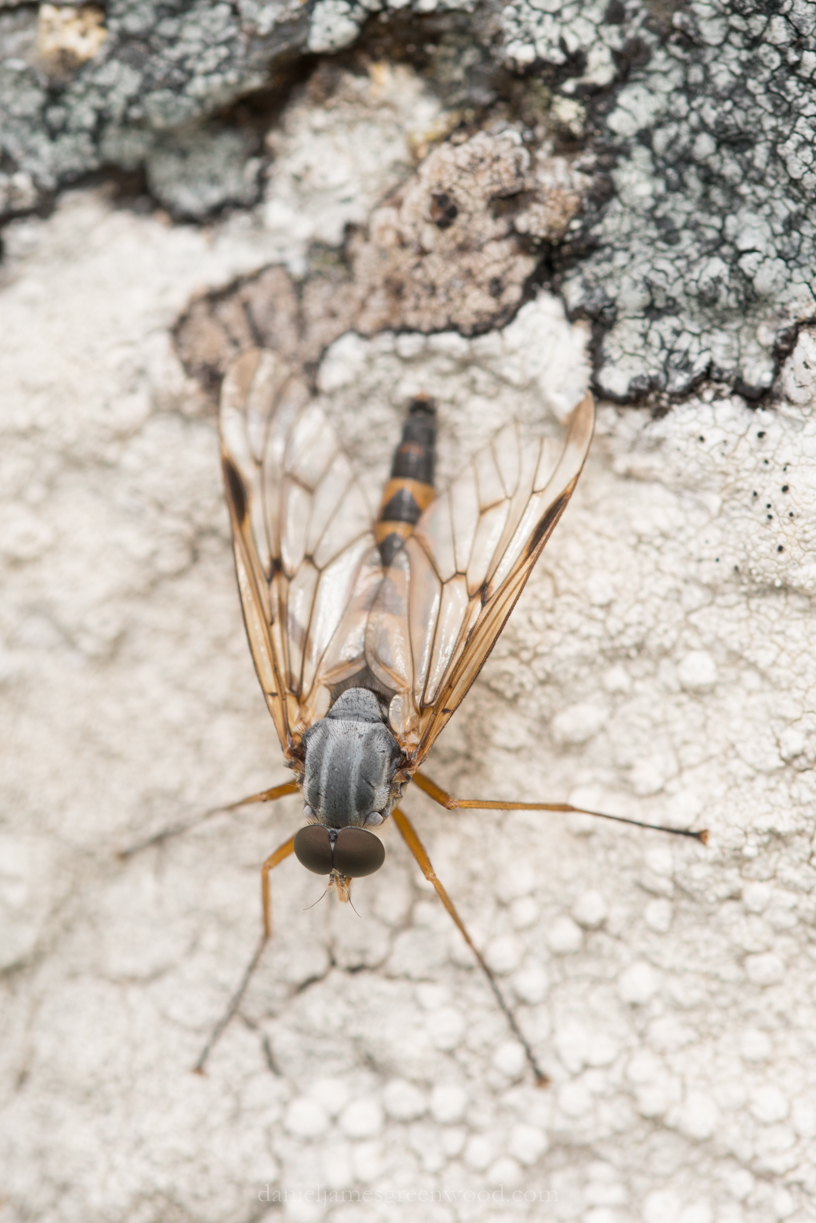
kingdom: Animalia
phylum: Arthropoda
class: Insecta
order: Diptera
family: Rhagionidae
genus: Rhagio
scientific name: Rhagio scolopacea
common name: Downlooker snipefly
